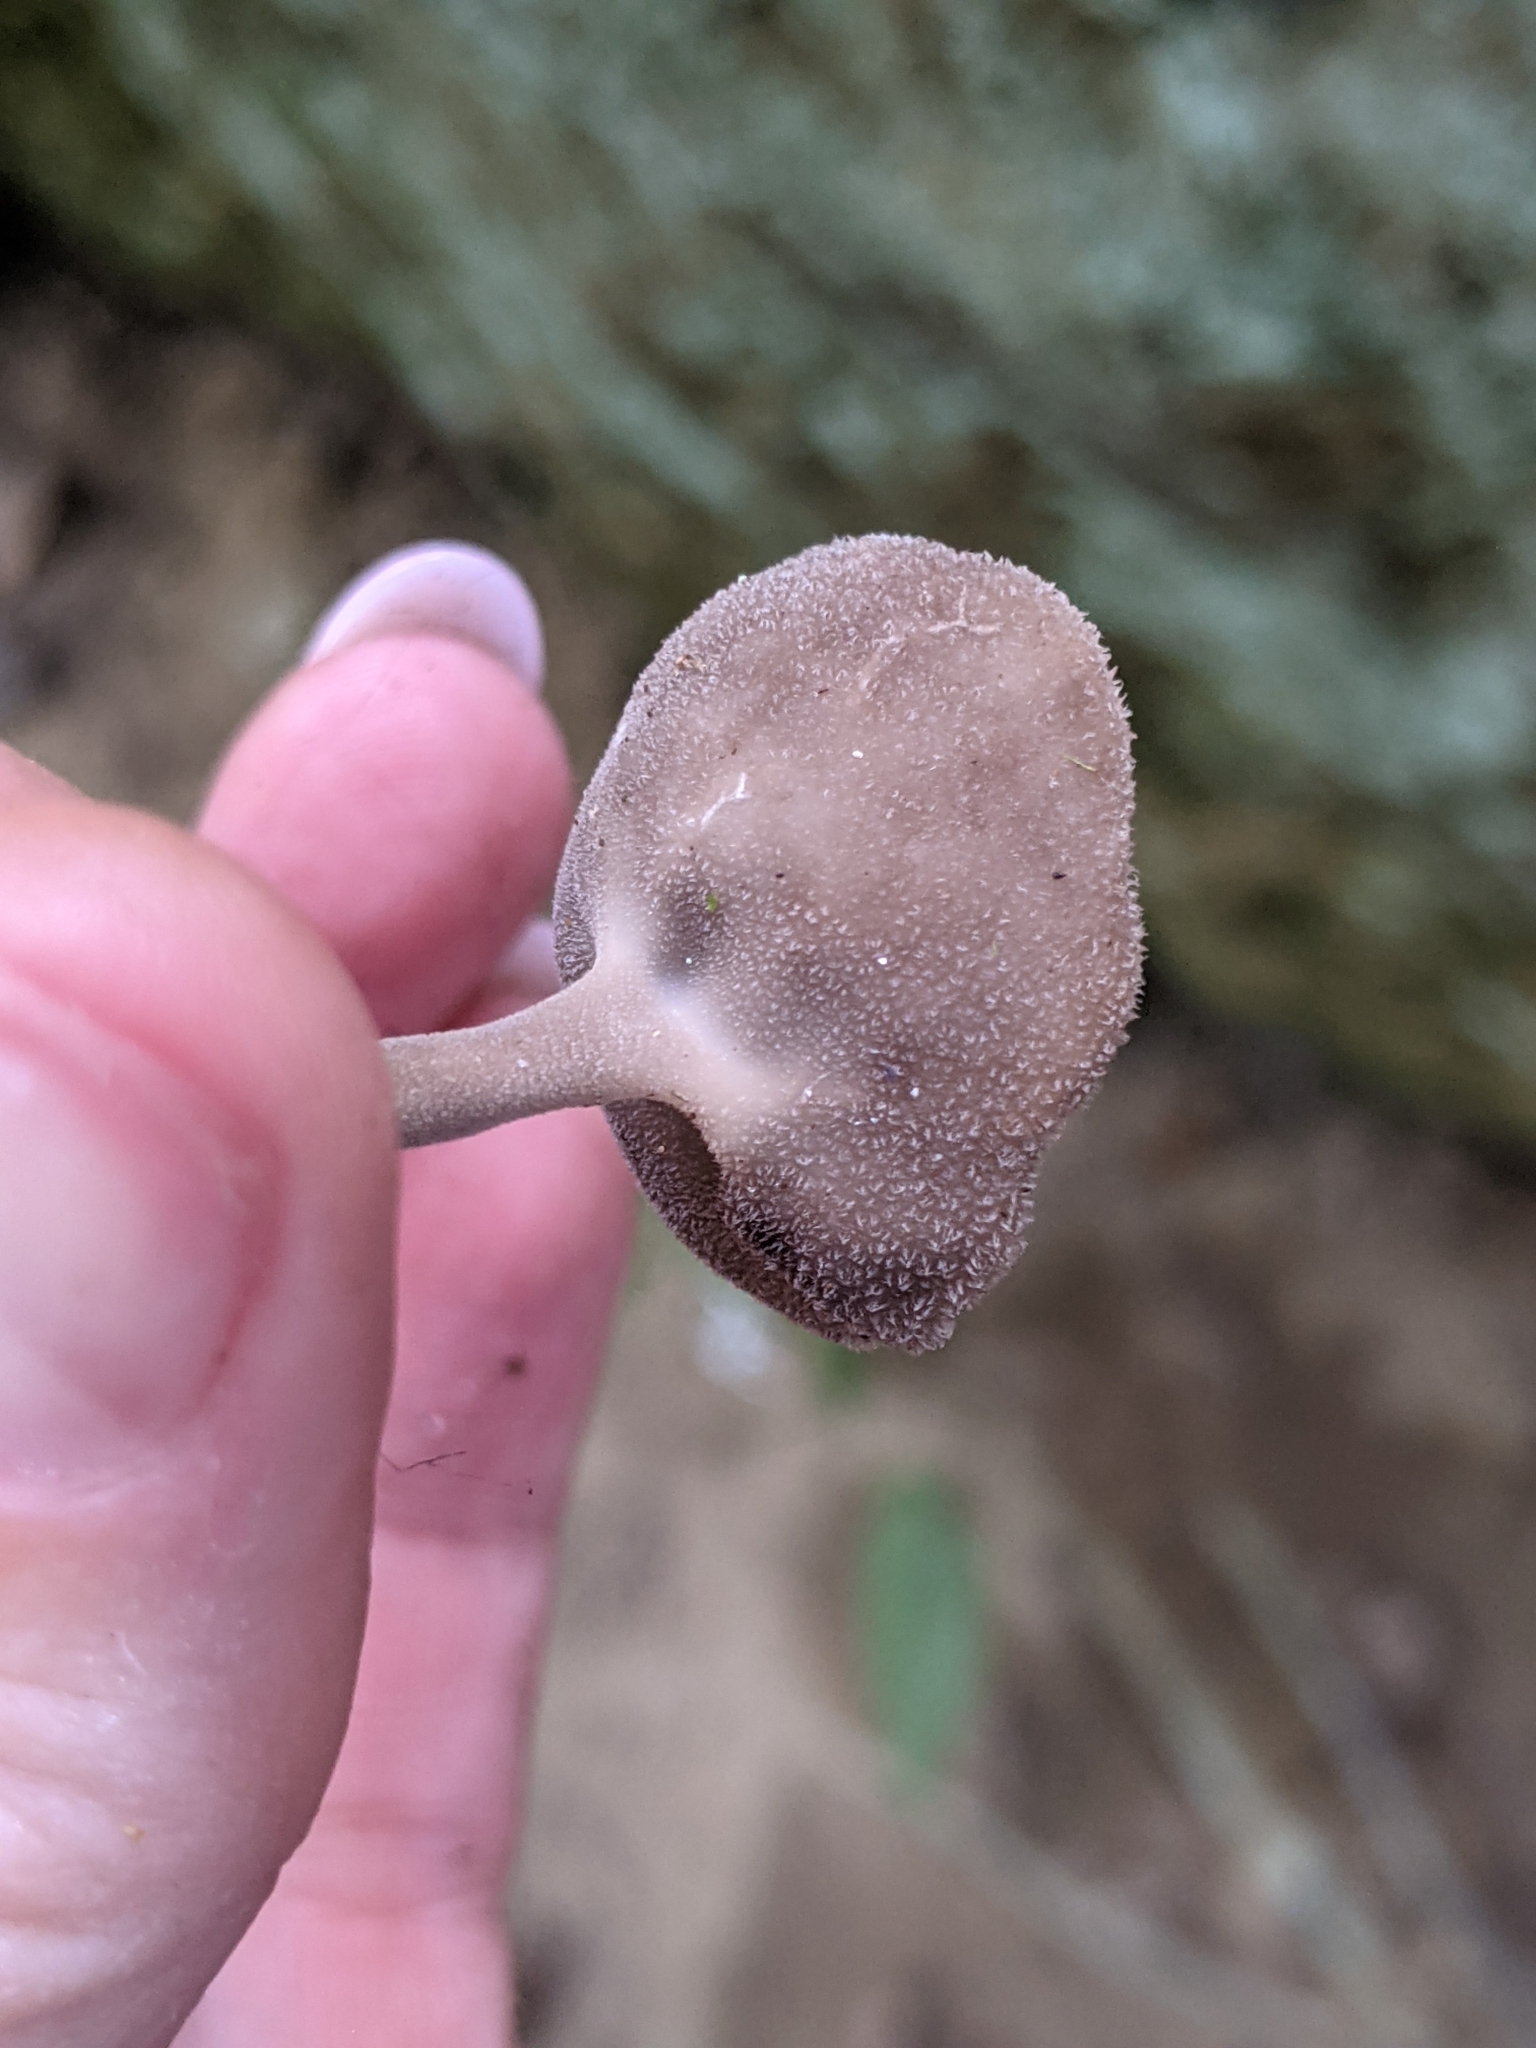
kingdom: Fungi
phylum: Ascomycota
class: Pezizomycetes
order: Pezizales
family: Helvellaceae
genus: Helvella
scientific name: Helvella macropus
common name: Felt saddle
